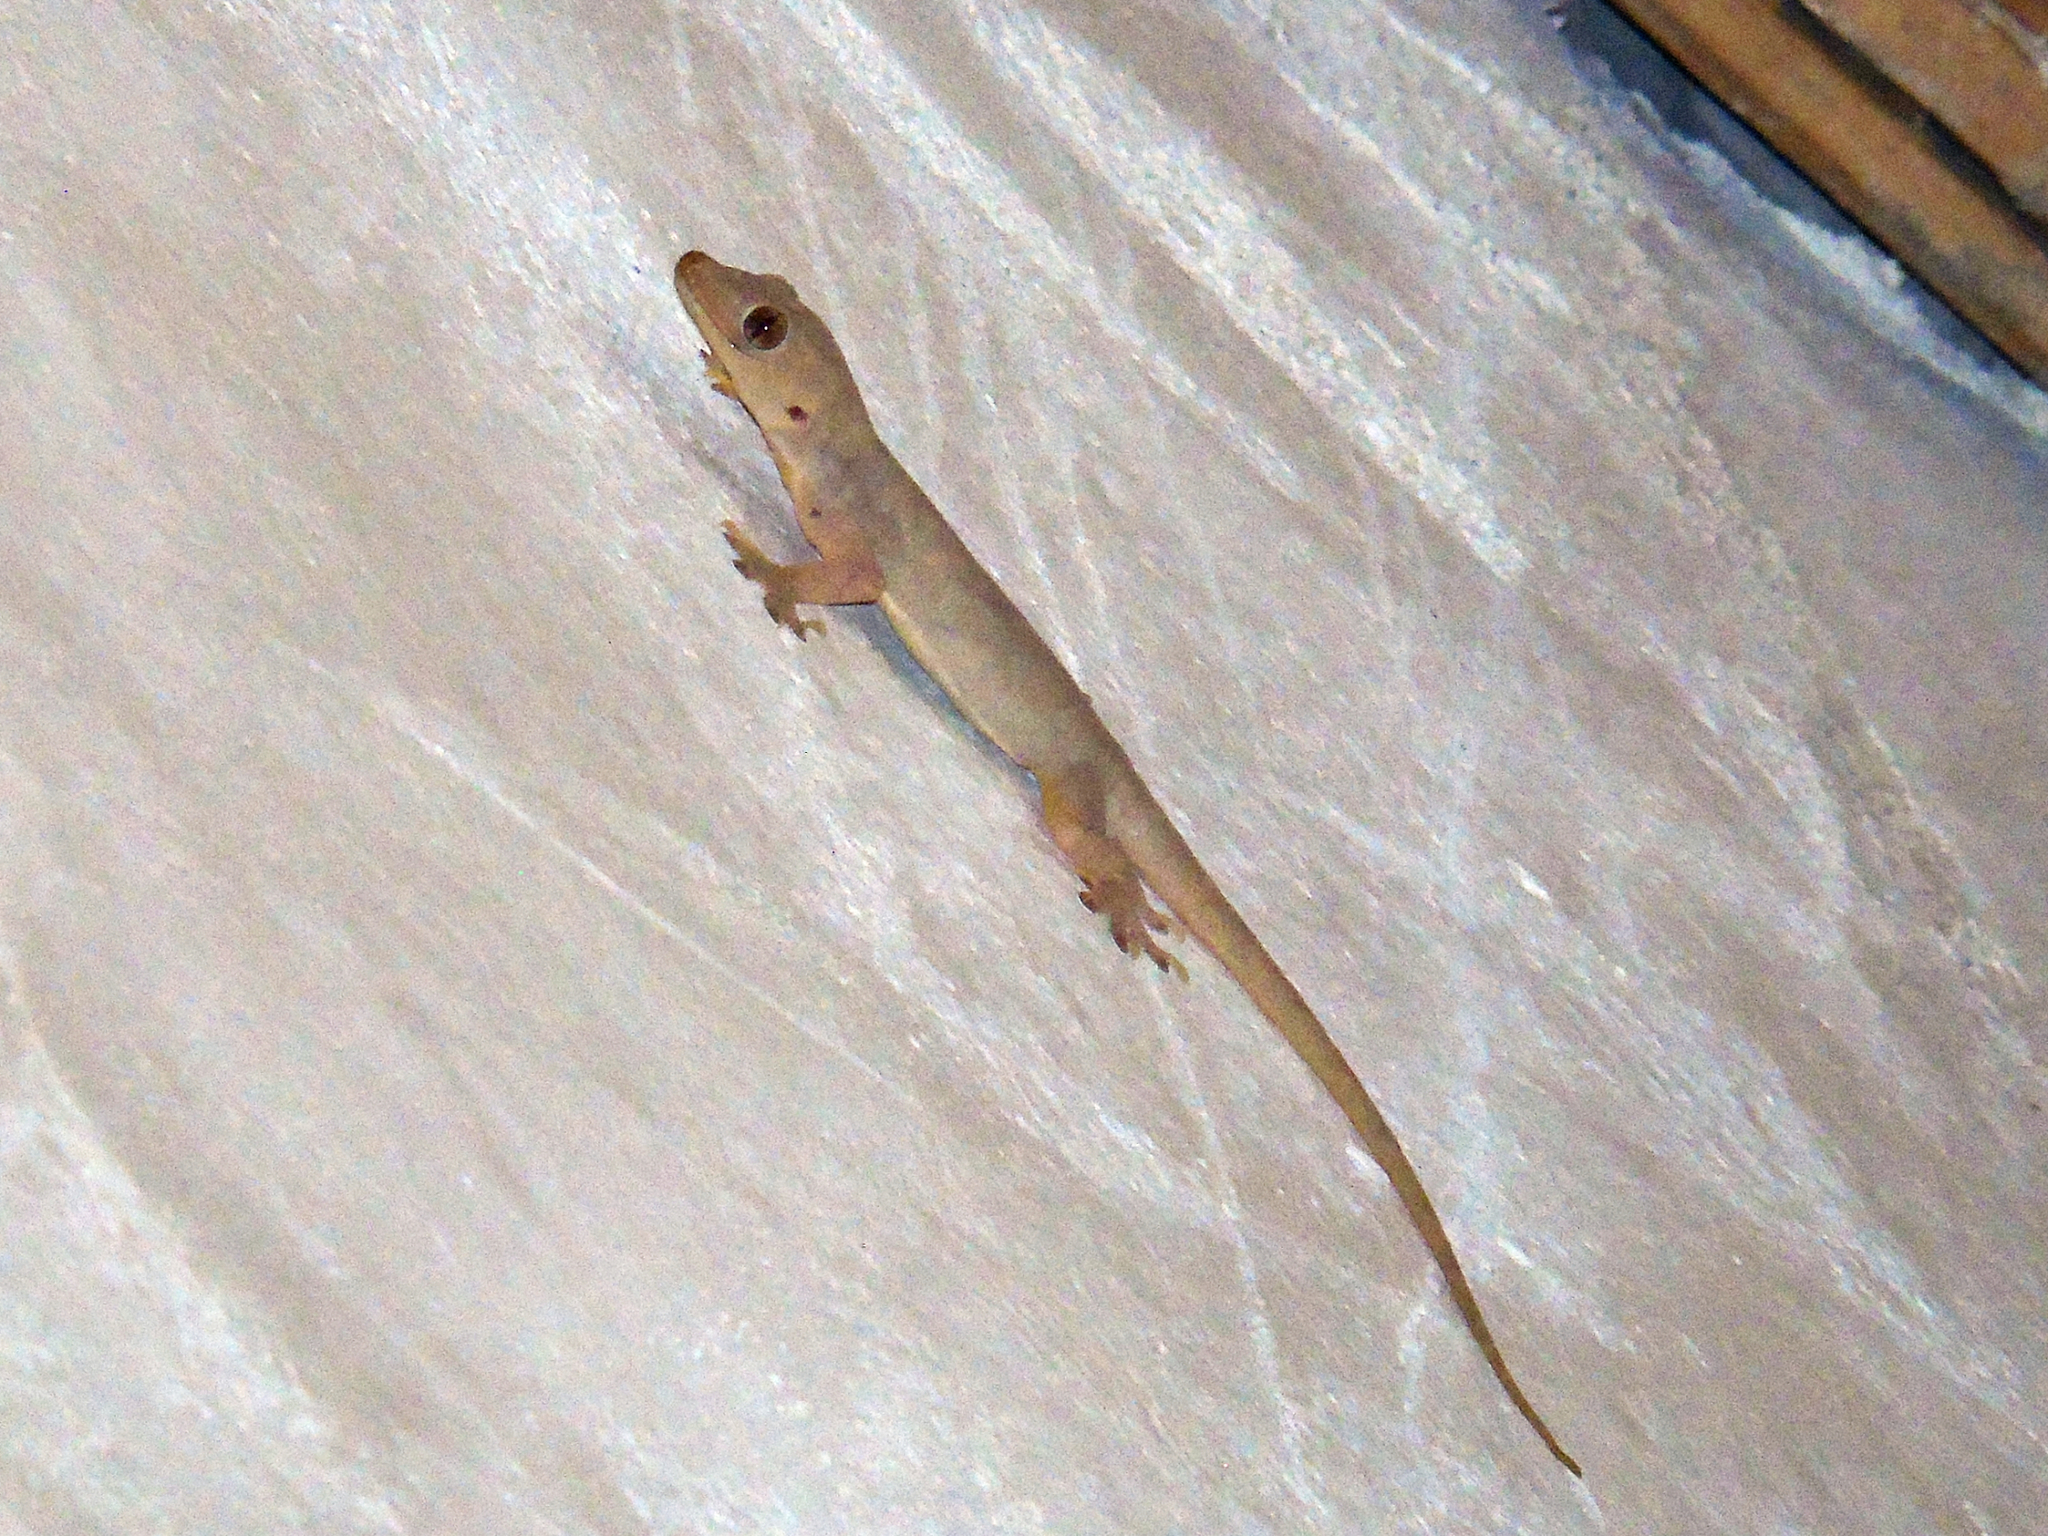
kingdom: Animalia
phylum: Chordata
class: Squamata
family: Gekkonidae
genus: Hemidactylus
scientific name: Hemidactylus flaviviridis
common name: Northern house gecko
